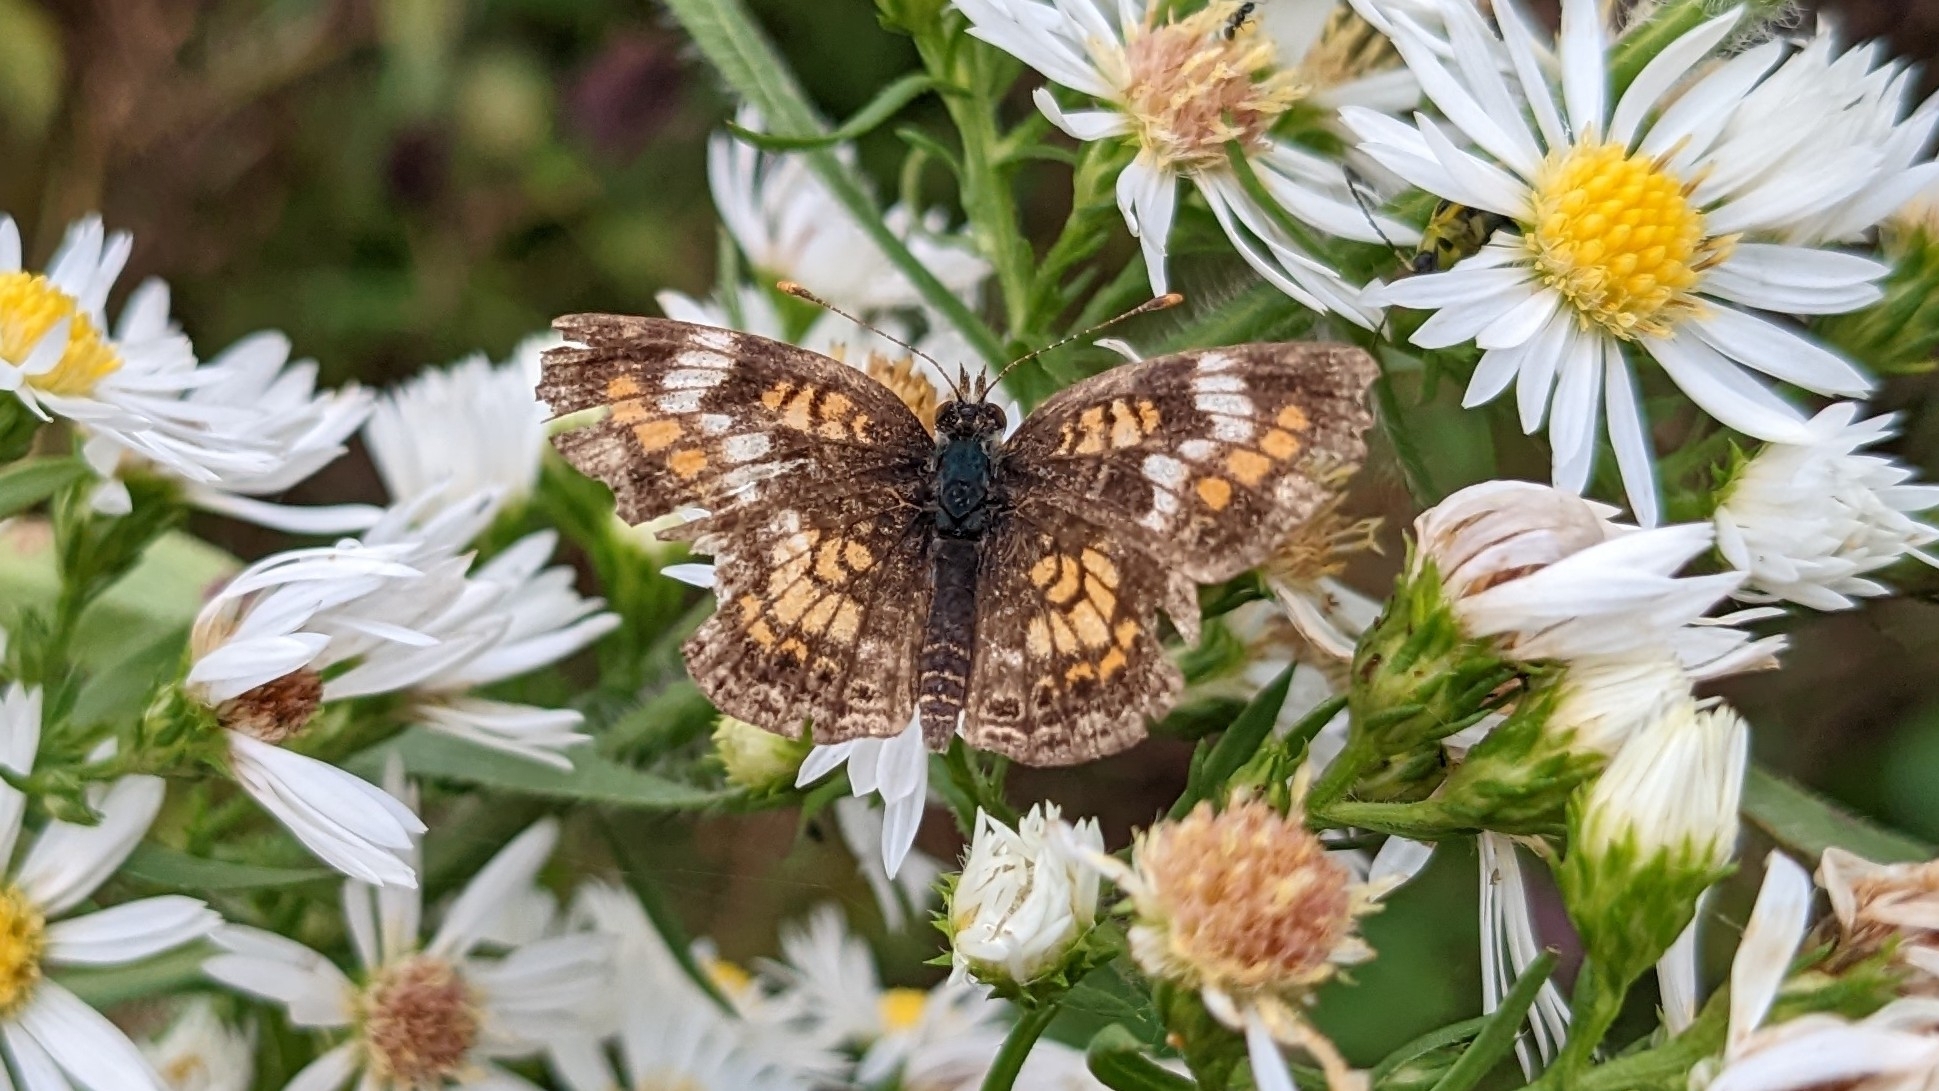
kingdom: Animalia
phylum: Arthropoda
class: Insecta
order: Lepidoptera
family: Nymphalidae
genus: Phyciodes
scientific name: Phyciodes phaon
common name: Phaon crescent
